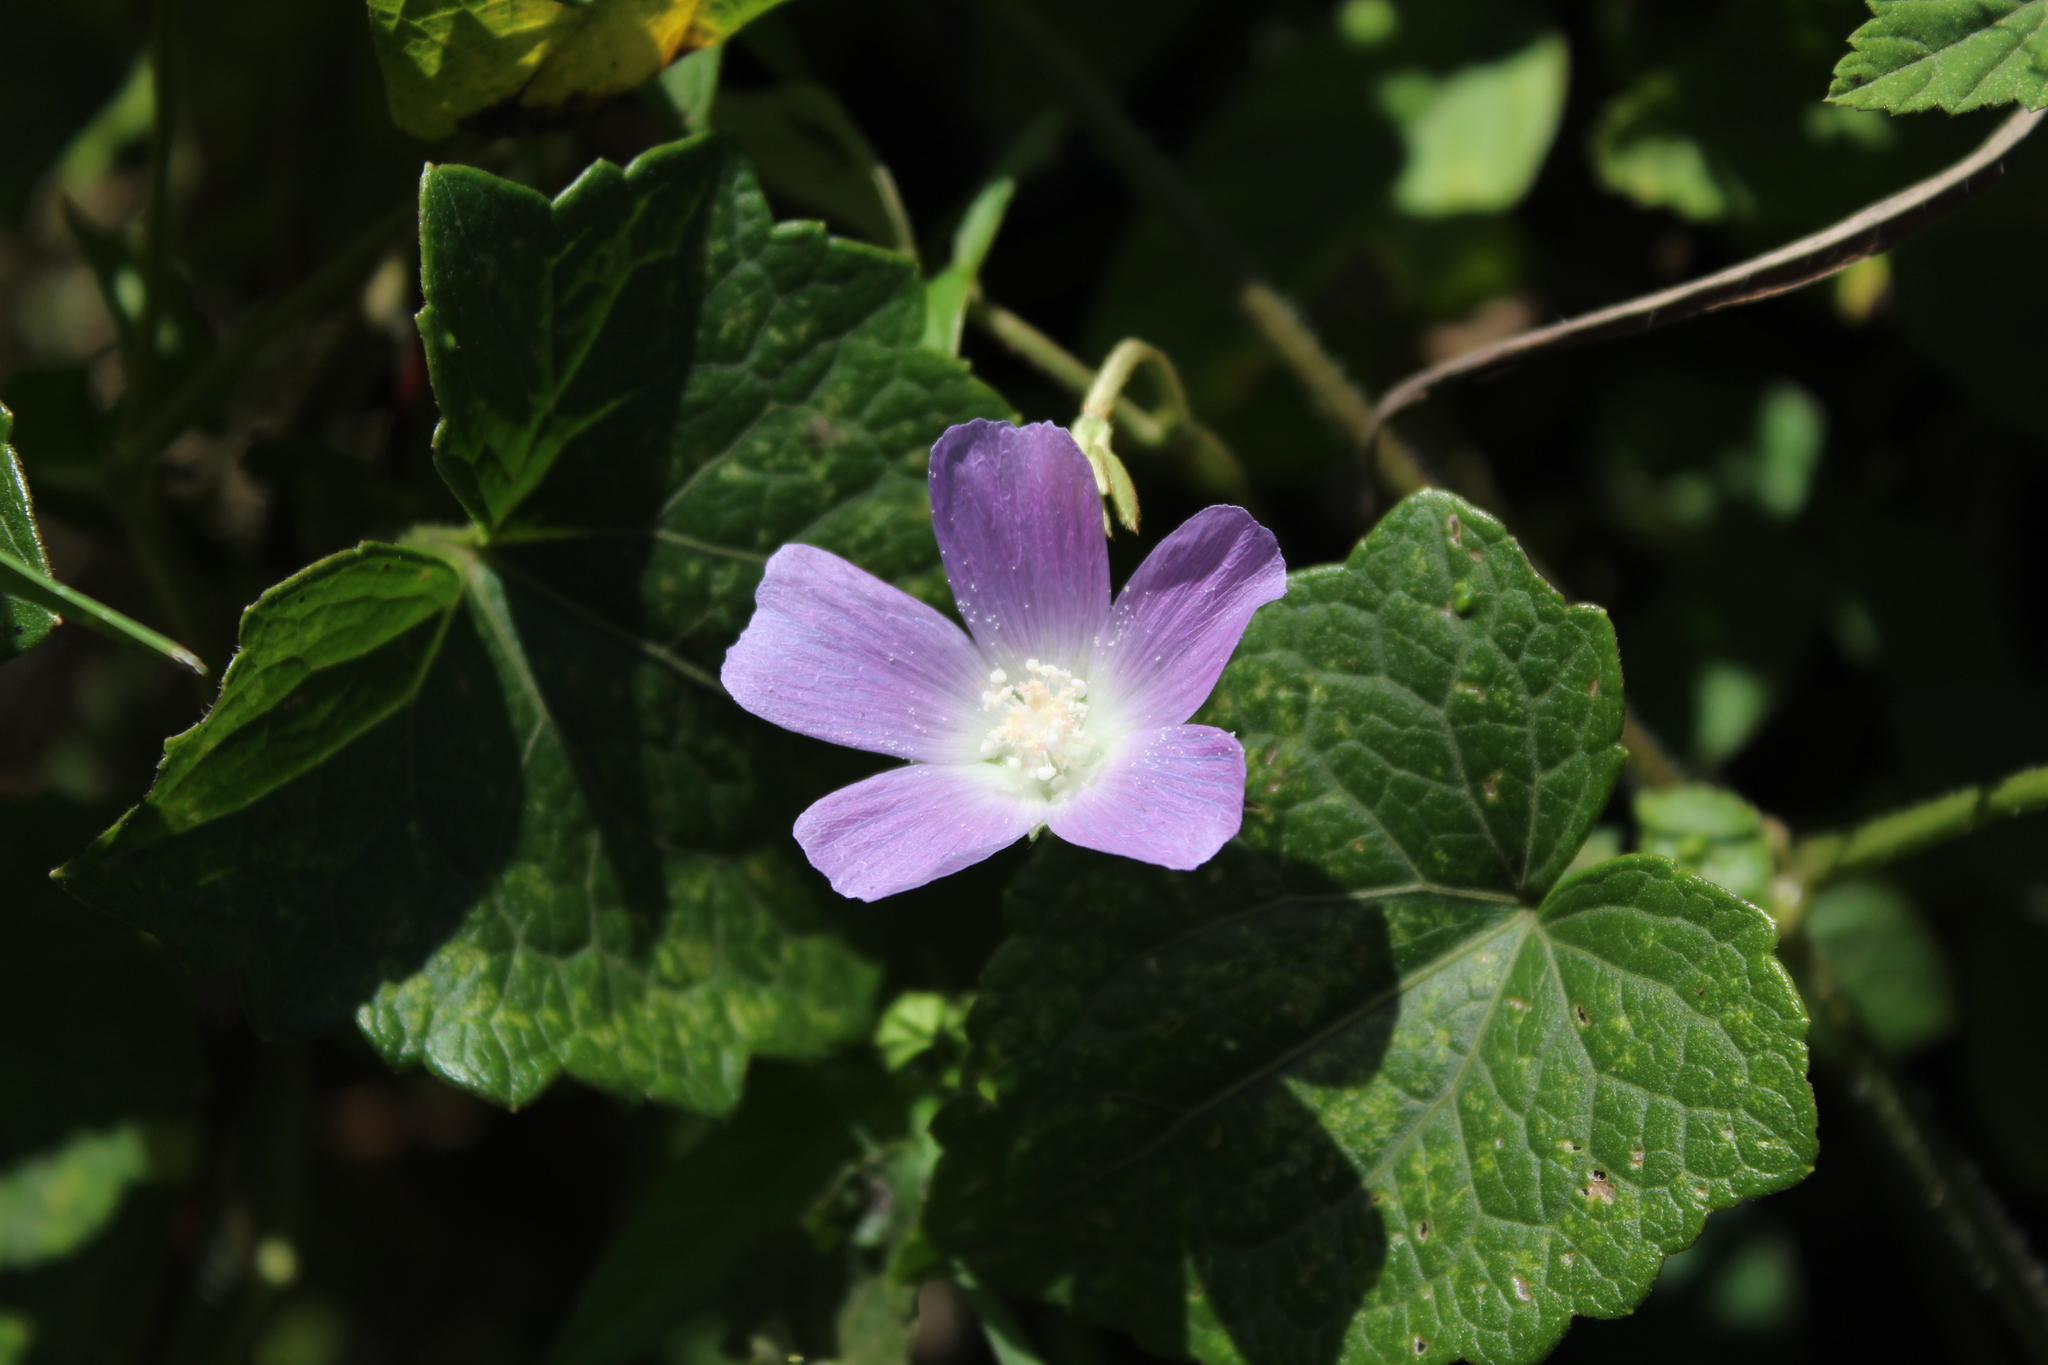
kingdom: Plantae
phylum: Tracheophyta
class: Magnoliopsida
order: Malvales
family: Malvaceae
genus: Anoda
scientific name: Anoda cristata
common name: Spurred anoda
